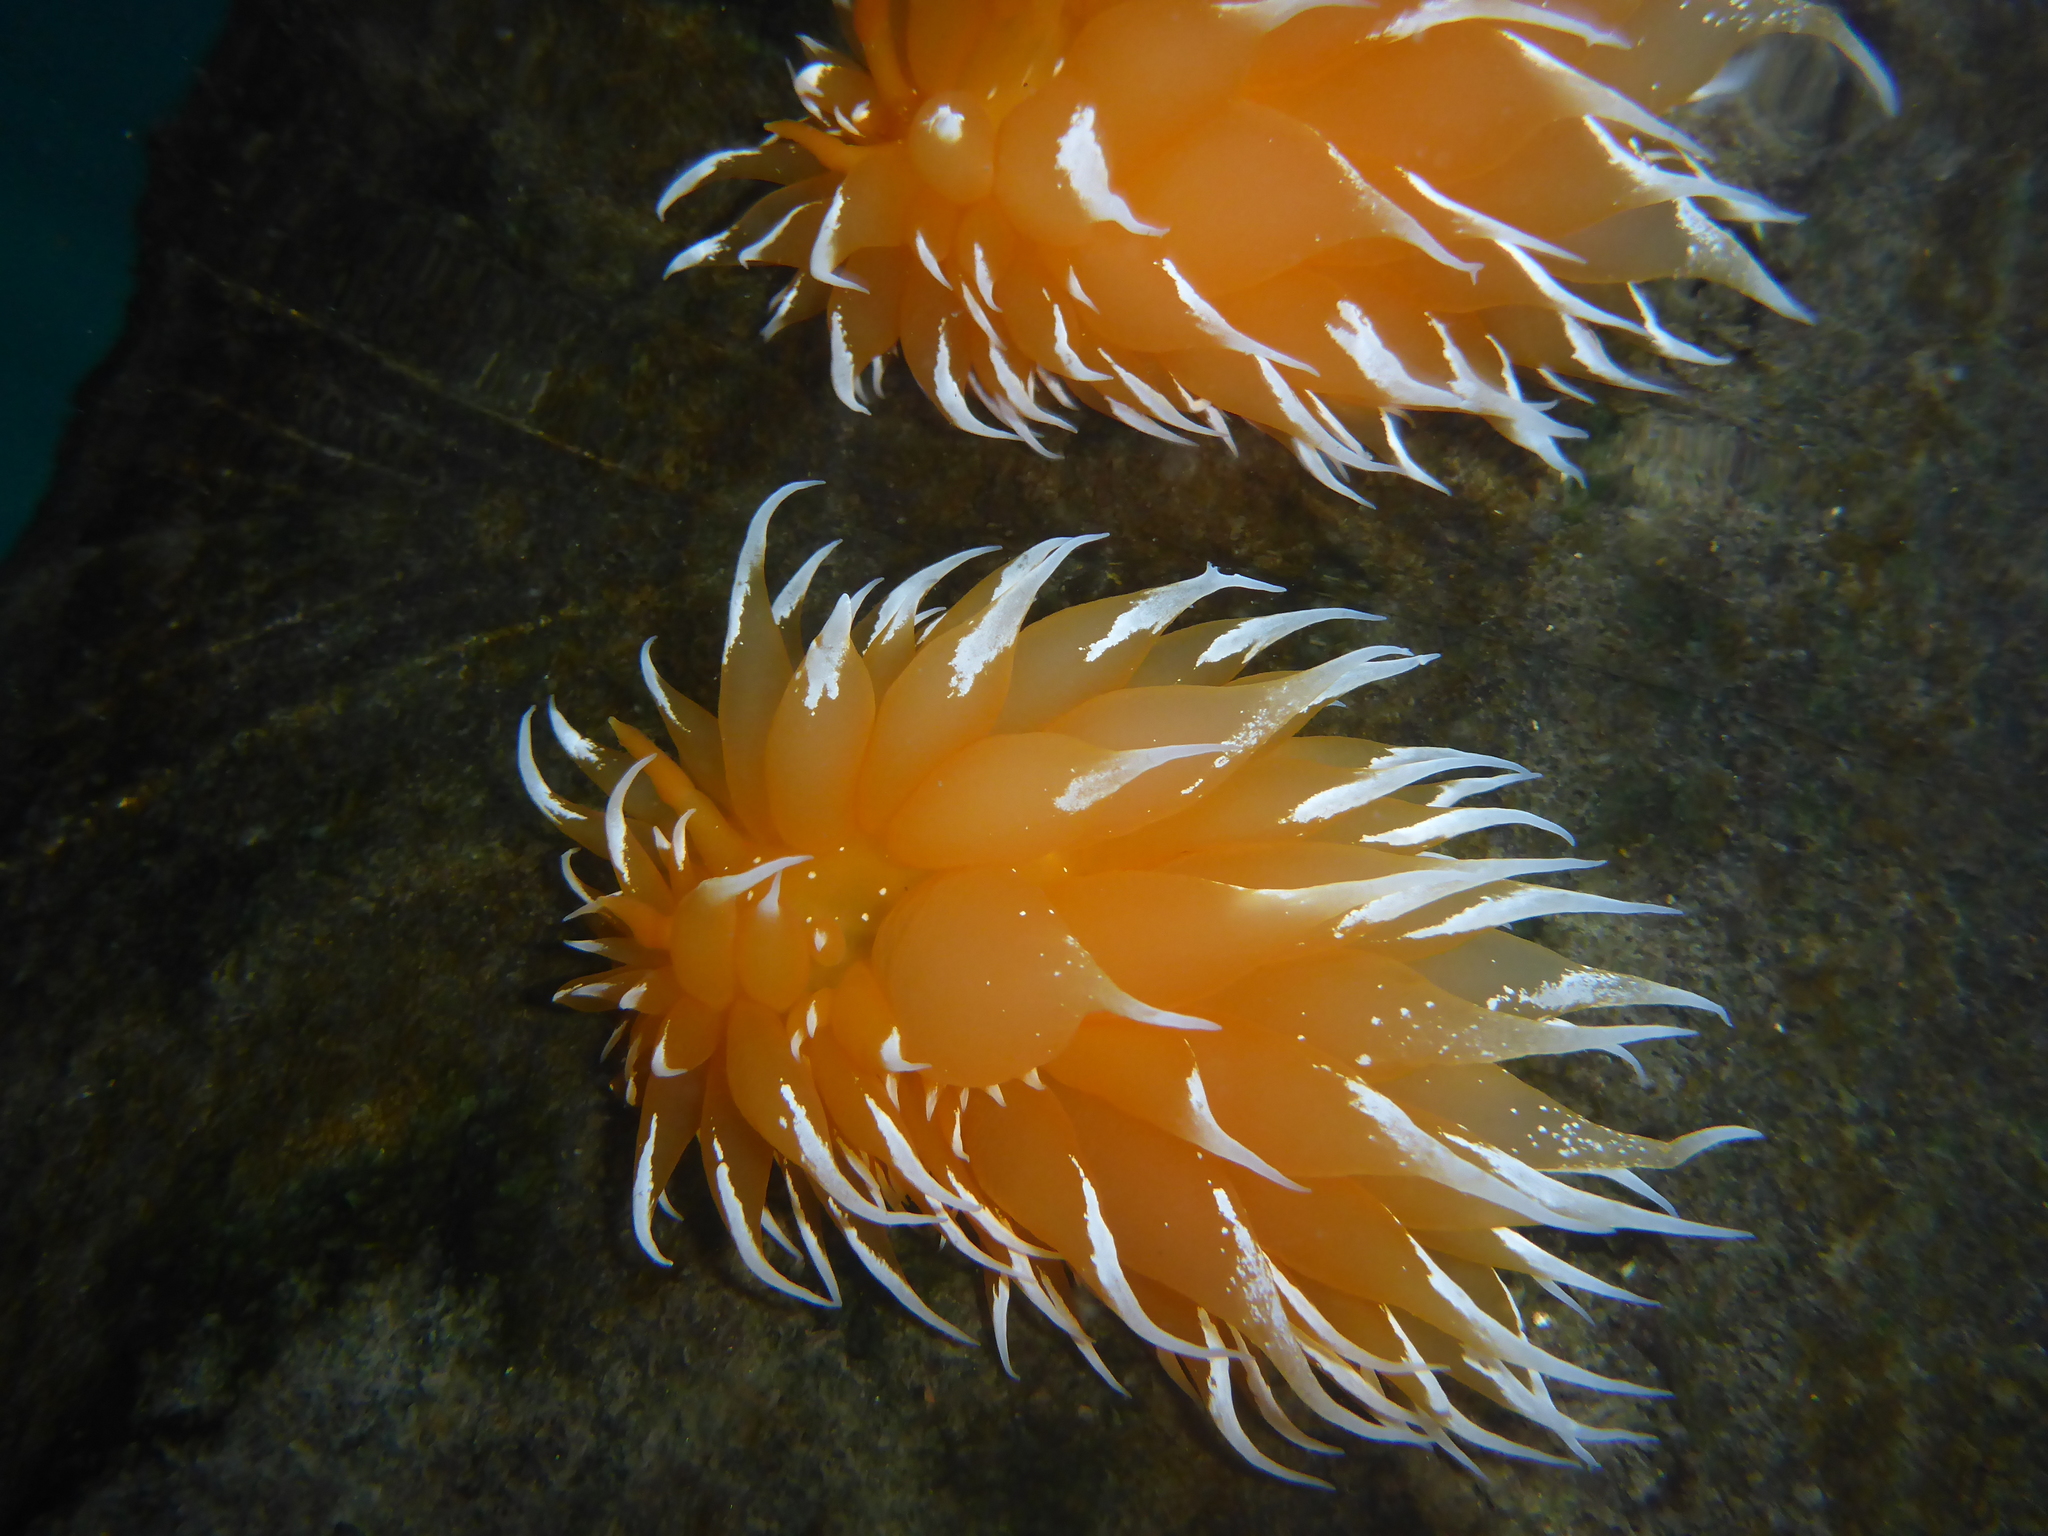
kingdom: Animalia
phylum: Mollusca
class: Gastropoda
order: Nudibranchia
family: Dironidae
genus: Dirona
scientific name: Dirona pellucida
